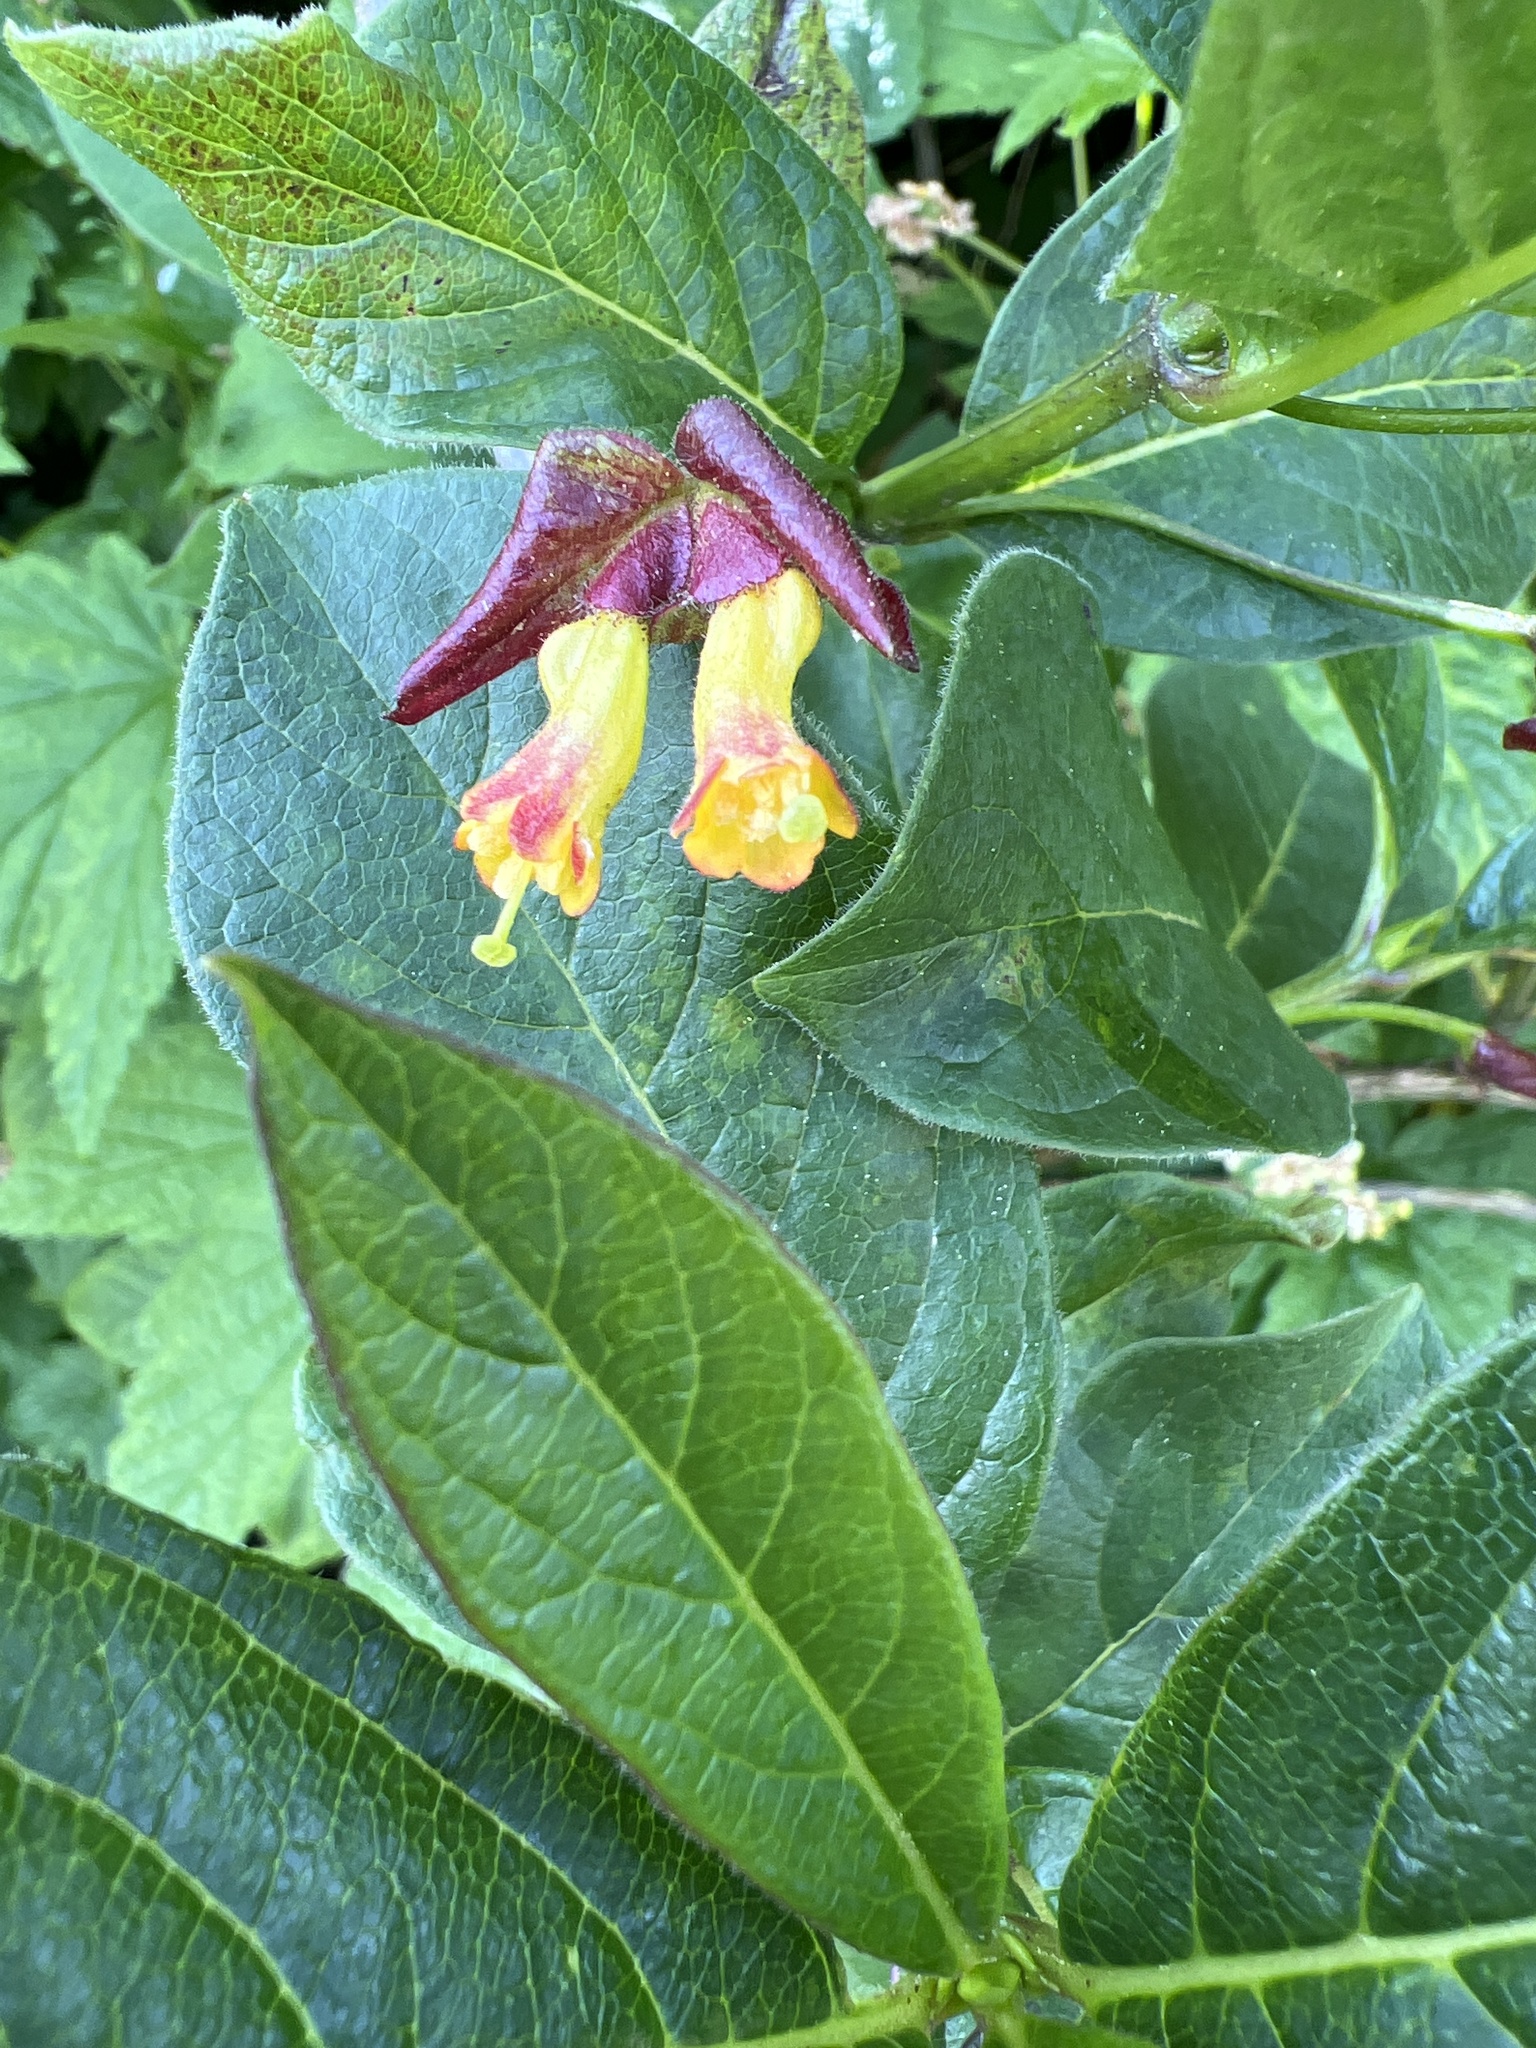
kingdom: Plantae
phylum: Tracheophyta
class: Magnoliopsida
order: Dipsacales
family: Caprifoliaceae
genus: Lonicera
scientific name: Lonicera involucrata
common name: Californian honeysuckle
